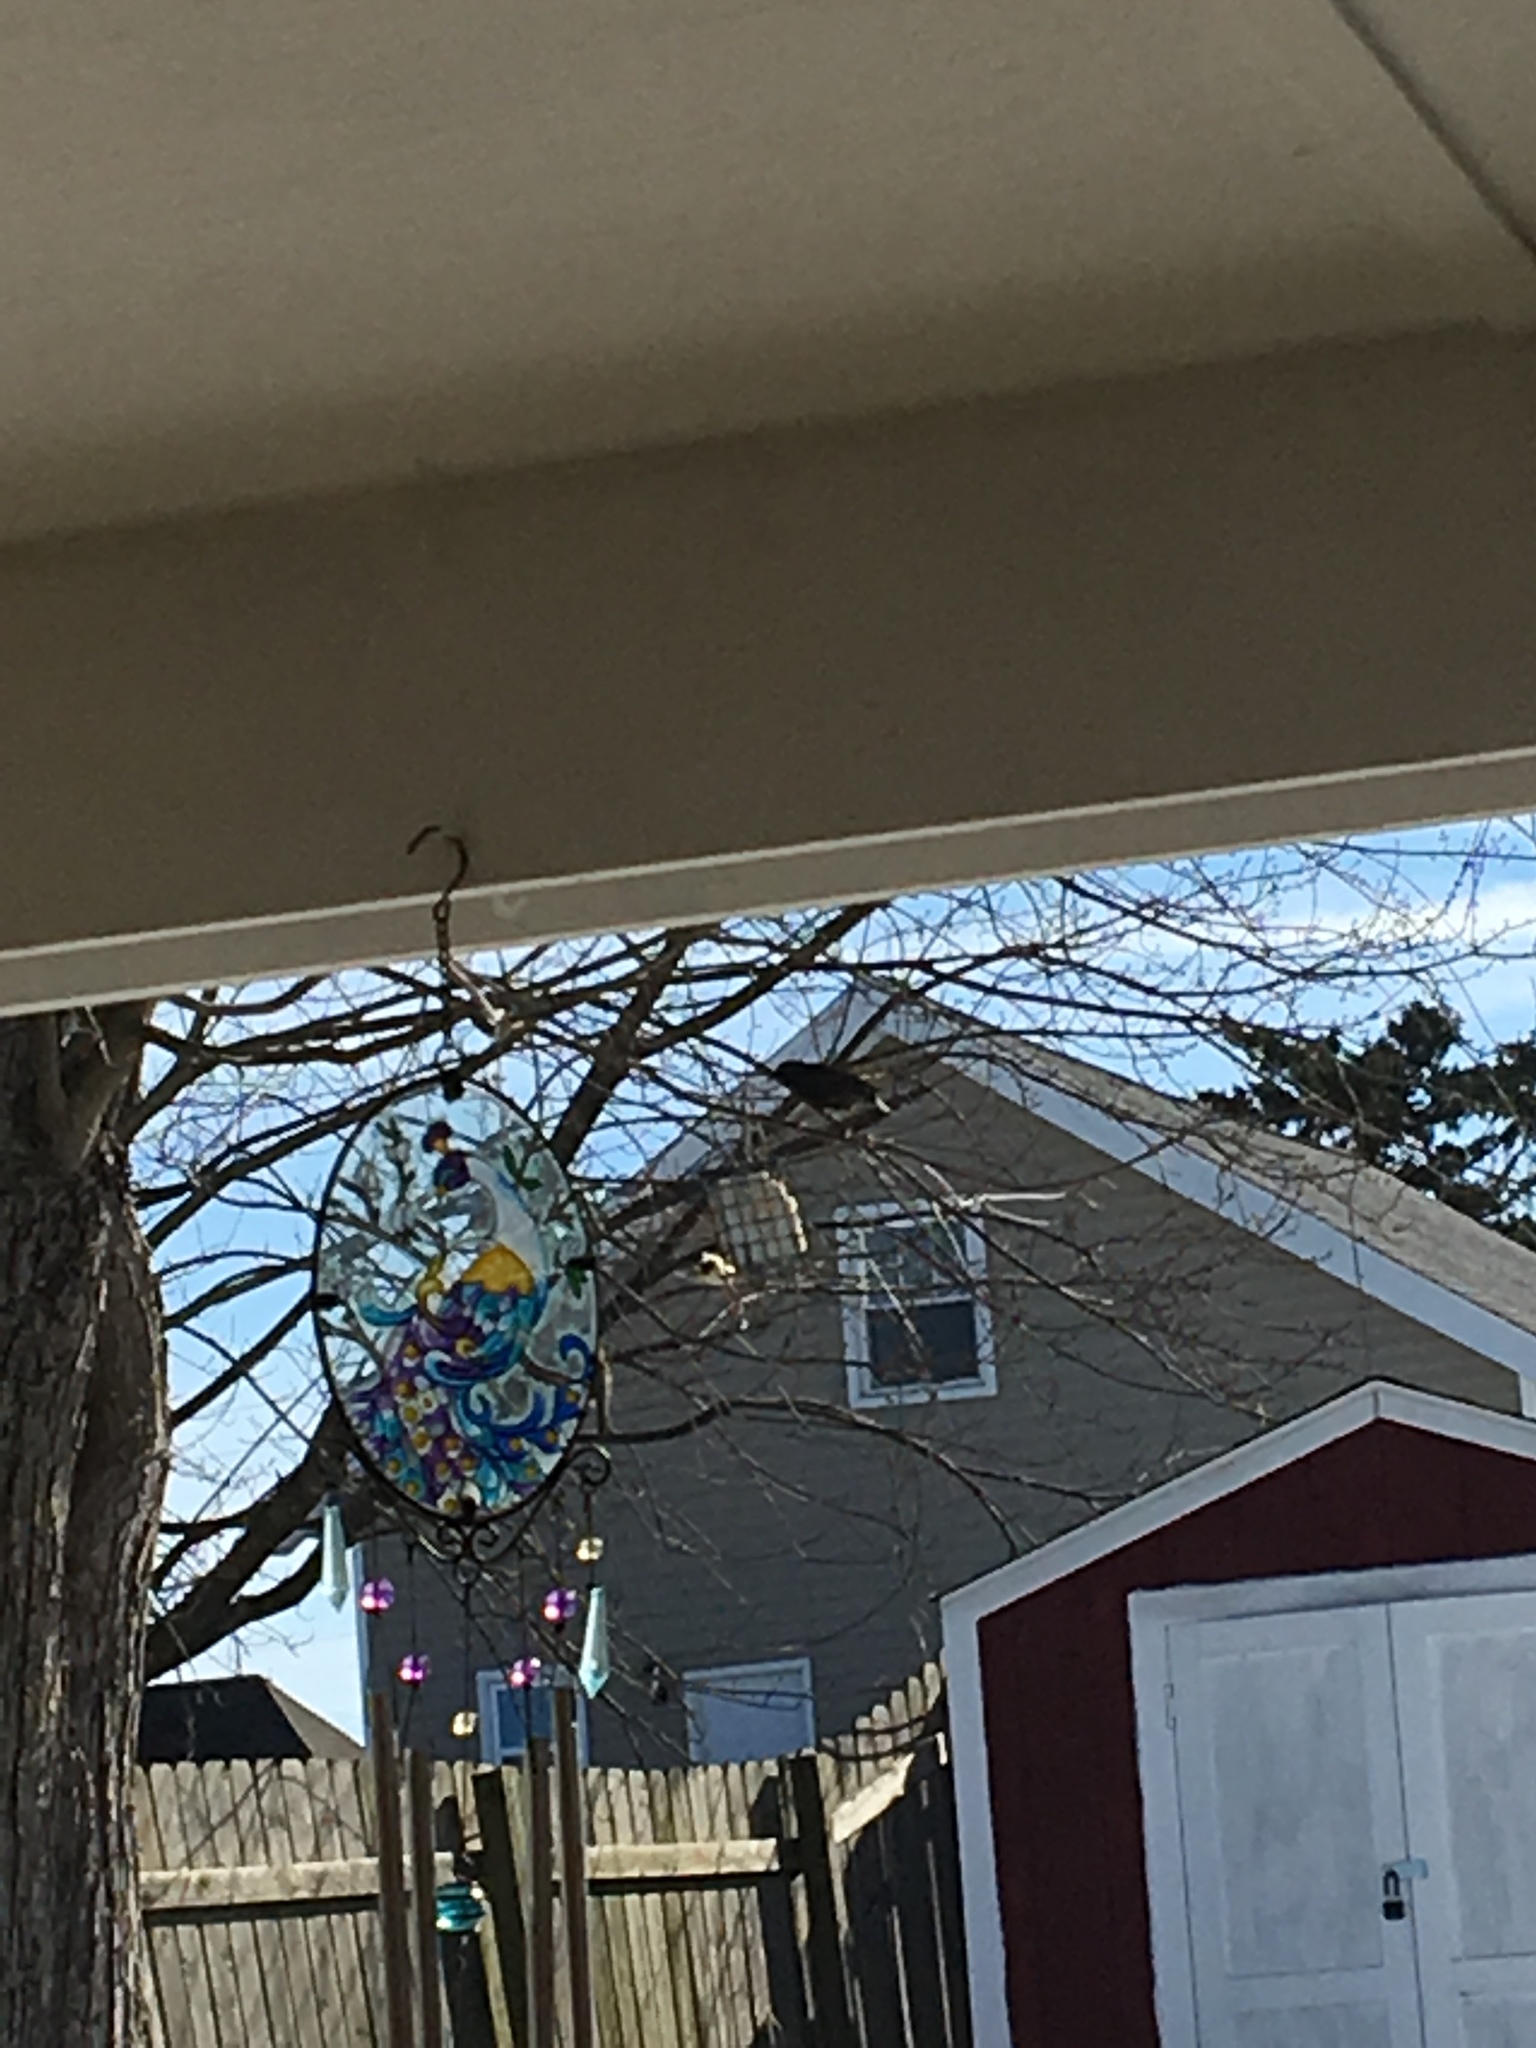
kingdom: Animalia
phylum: Chordata
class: Aves
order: Passeriformes
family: Sturnidae
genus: Sturnus
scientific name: Sturnus vulgaris
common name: Common starling
